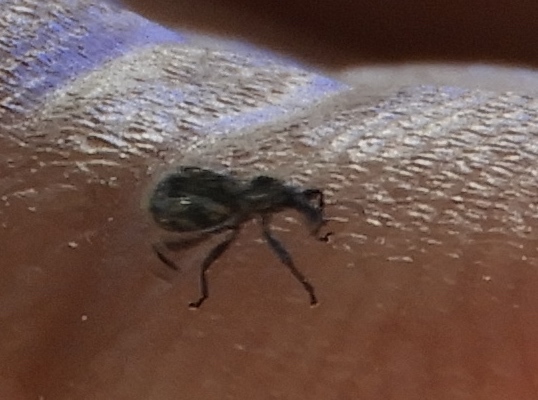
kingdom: Animalia
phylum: Arthropoda
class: Insecta
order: Coleoptera
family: Curculionidae
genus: Myrmex
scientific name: Myrmex
